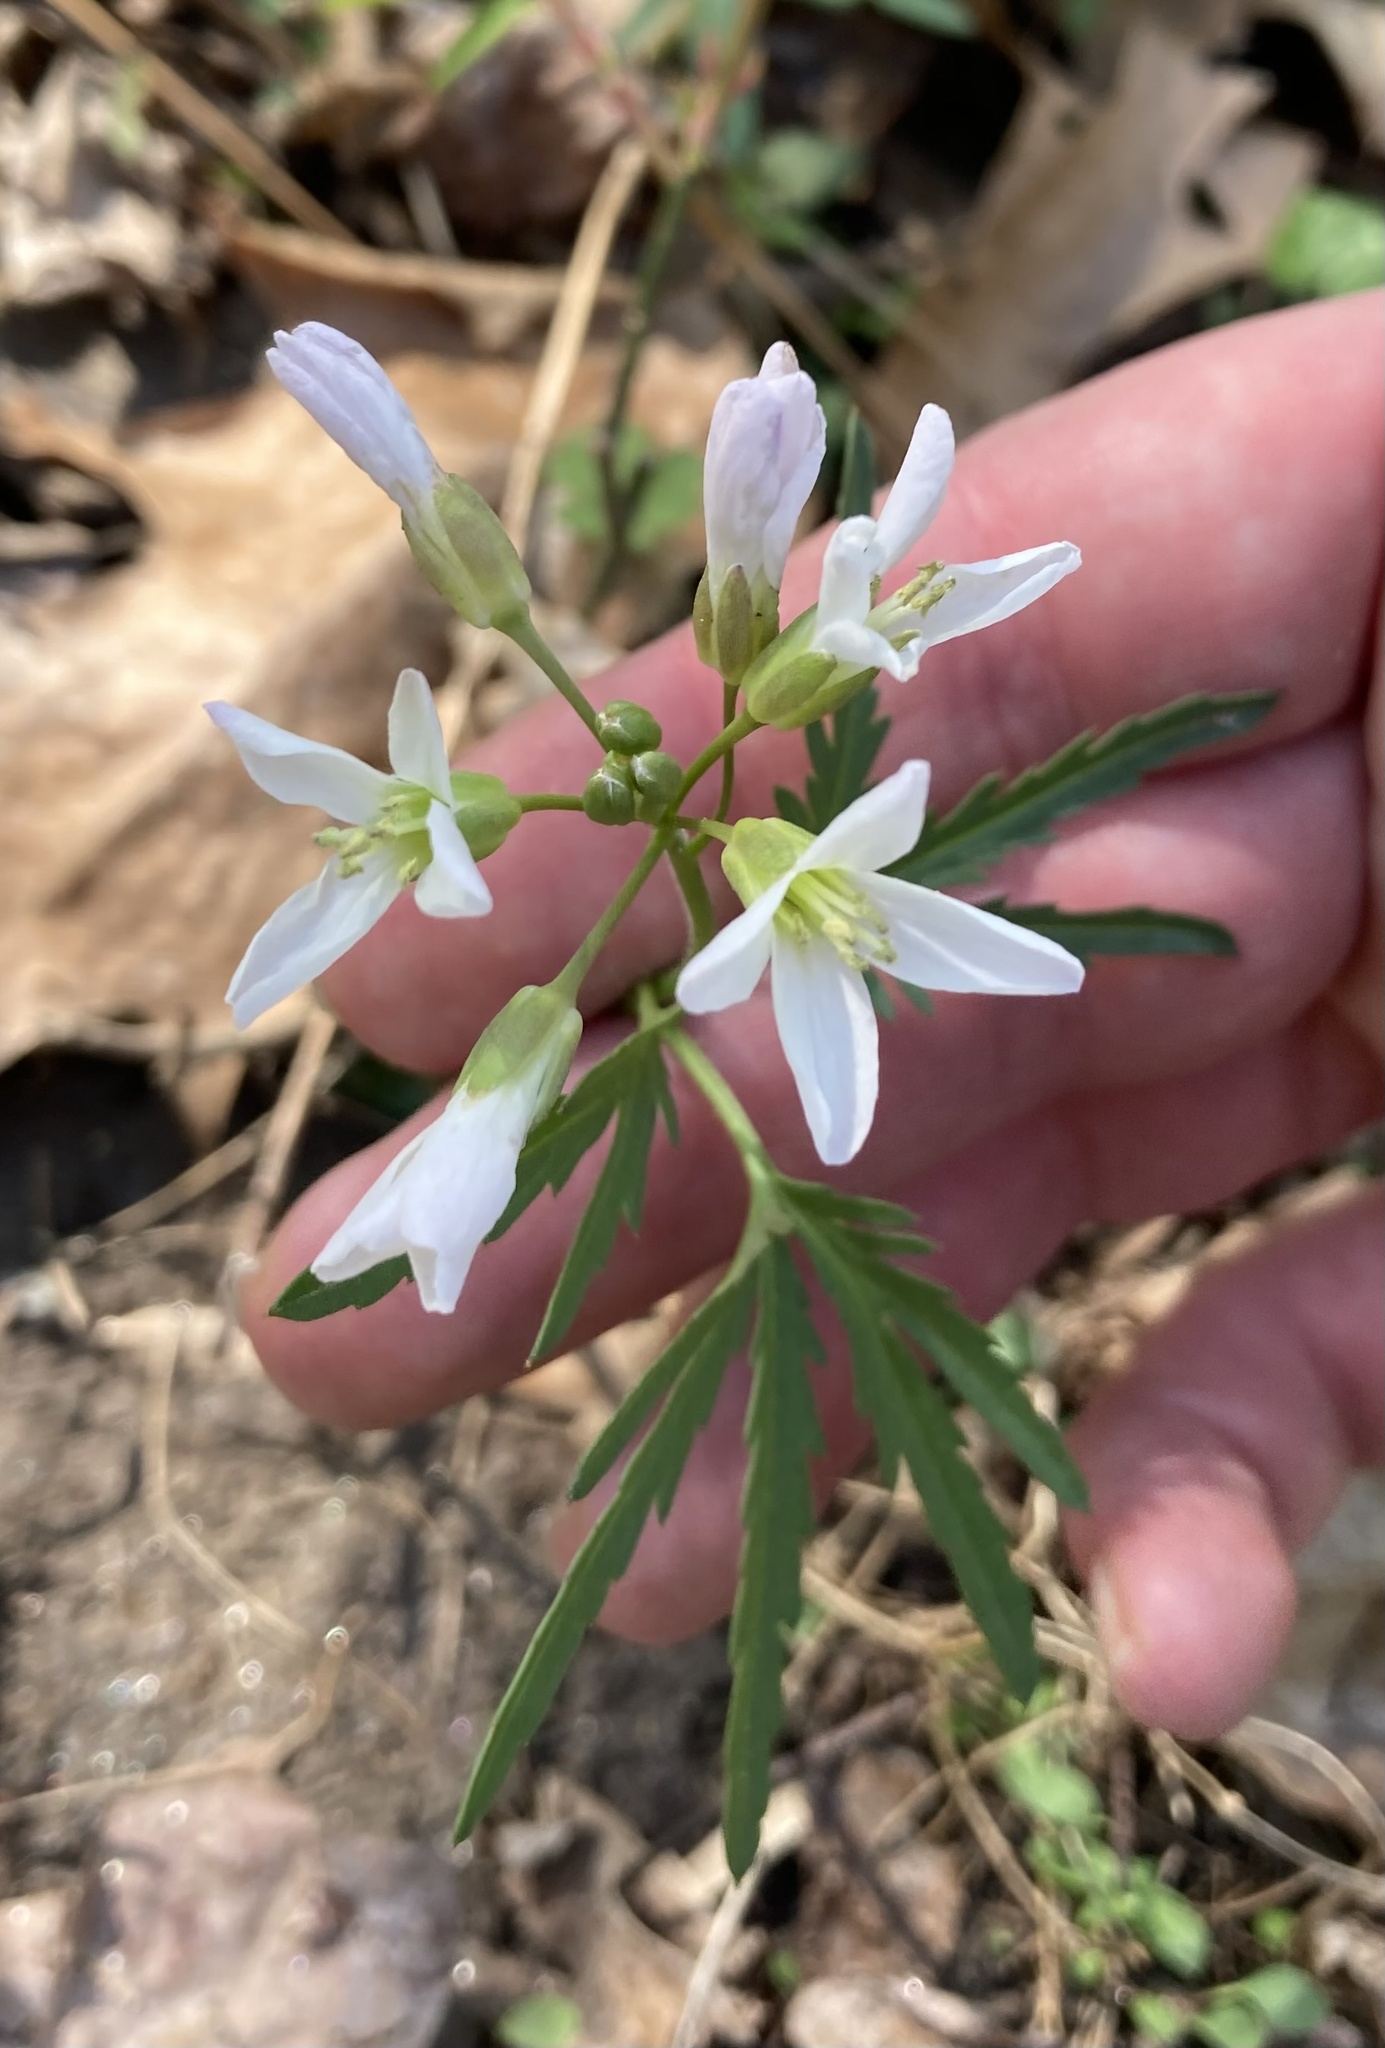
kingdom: Plantae
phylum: Tracheophyta
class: Magnoliopsida
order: Brassicales
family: Brassicaceae
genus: Cardamine
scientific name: Cardamine concatenata
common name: Cut-leaf toothcup
